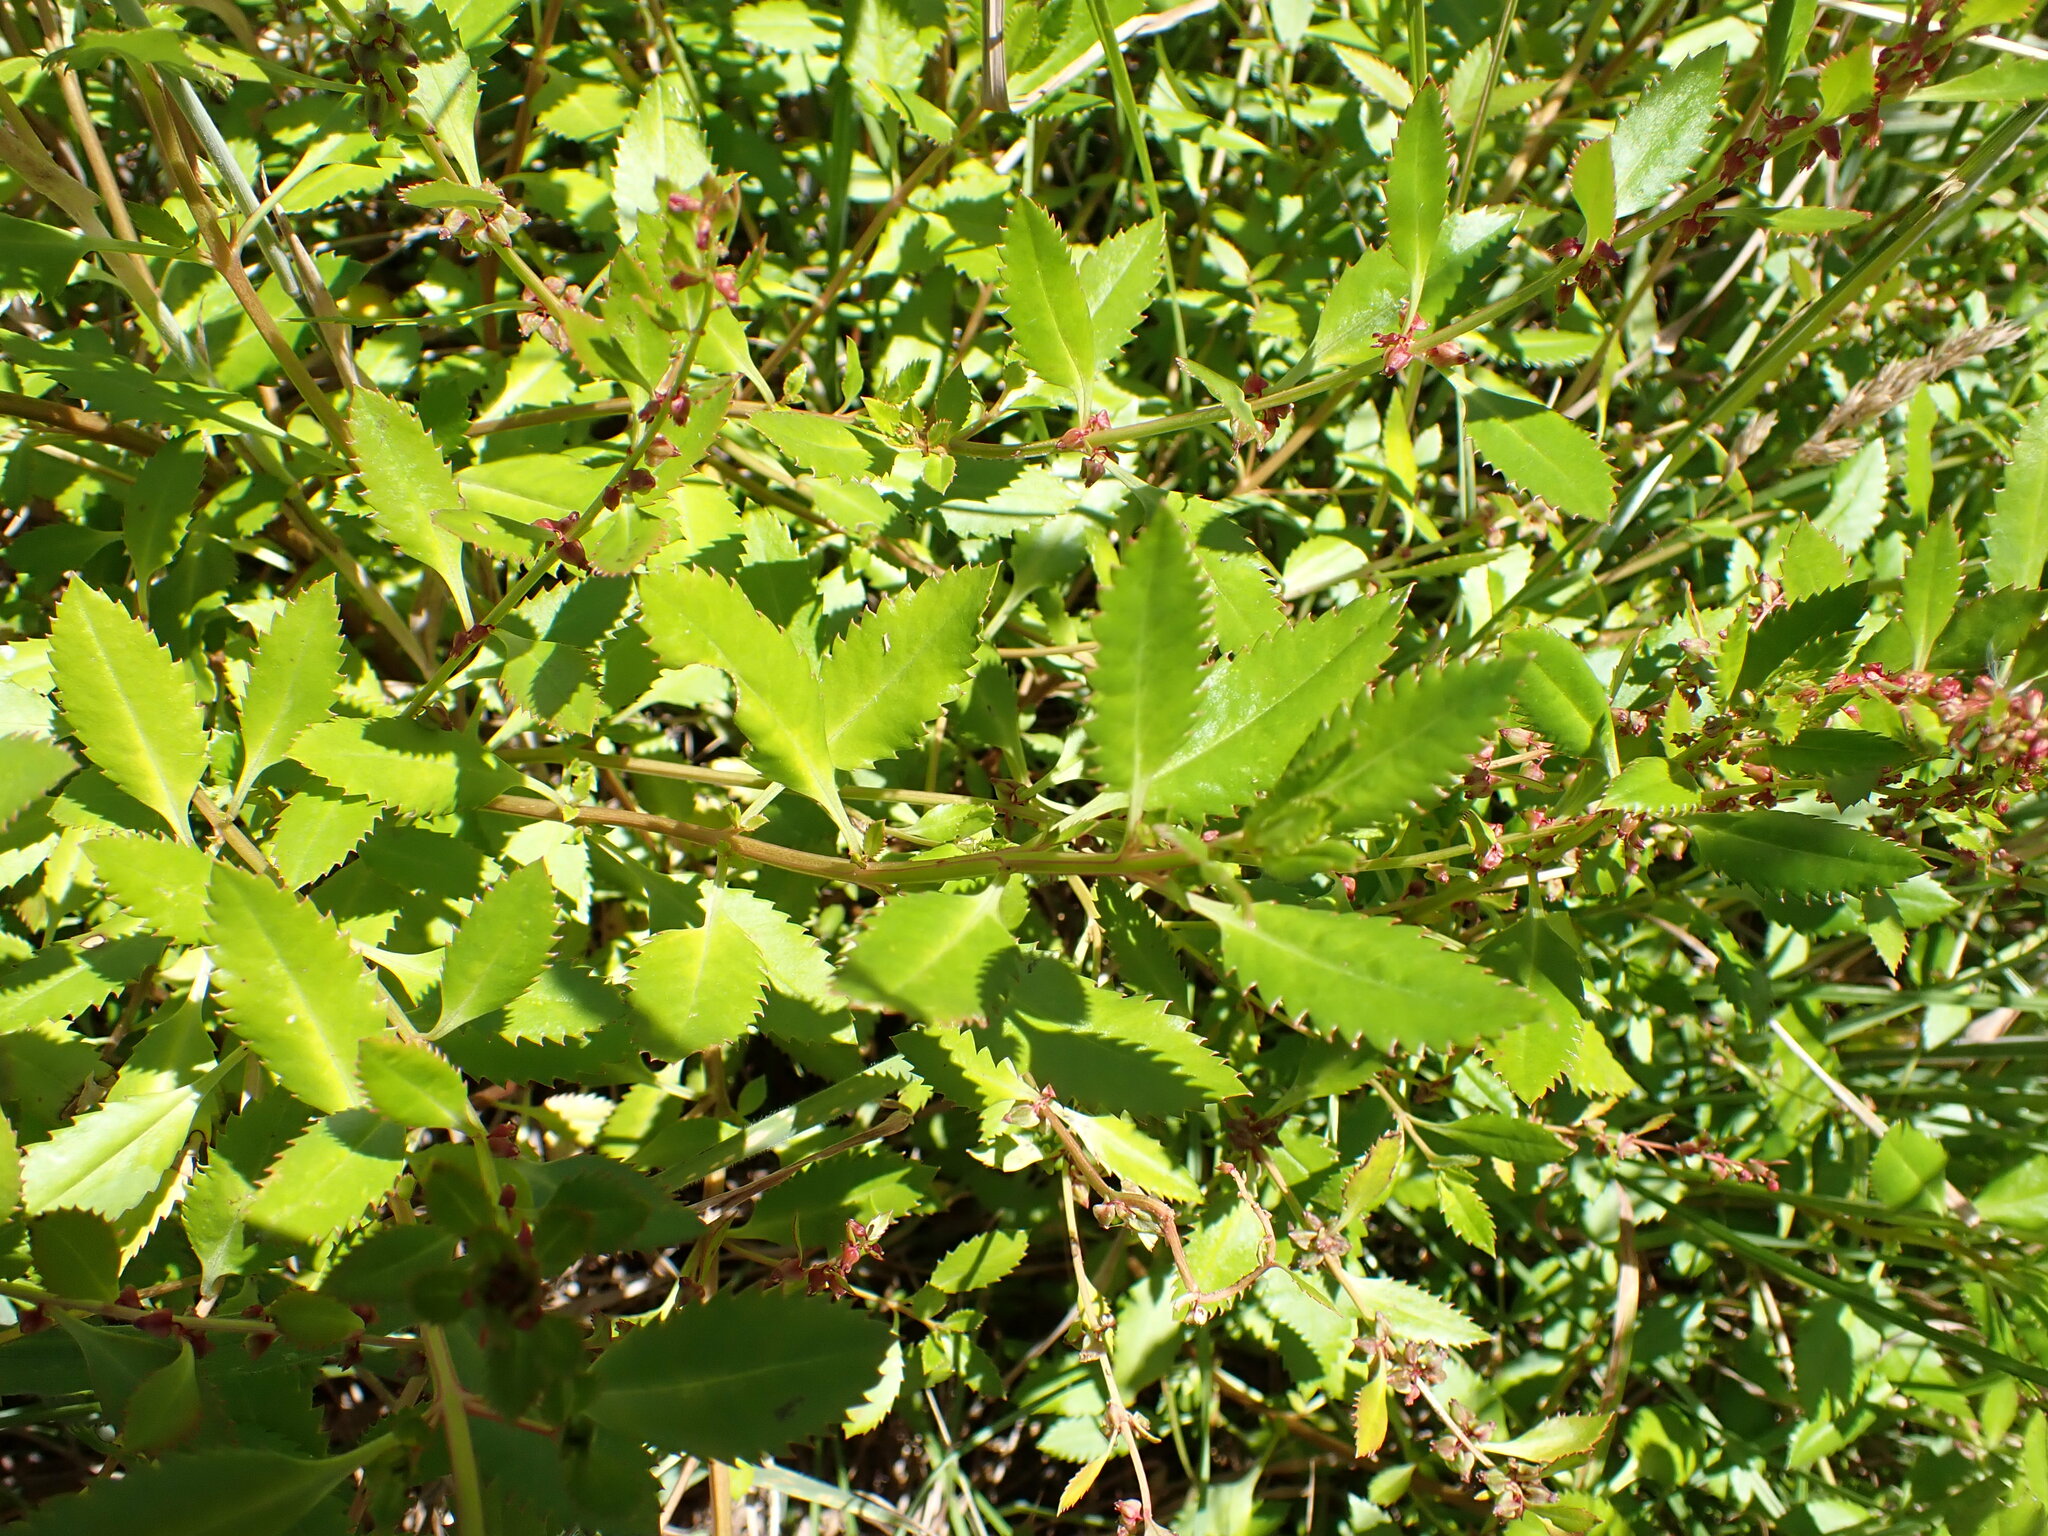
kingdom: Plantae
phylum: Tracheophyta
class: Magnoliopsida
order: Saxifragales
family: Haloragaceae
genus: Haloragis
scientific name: Haloragis erecta
